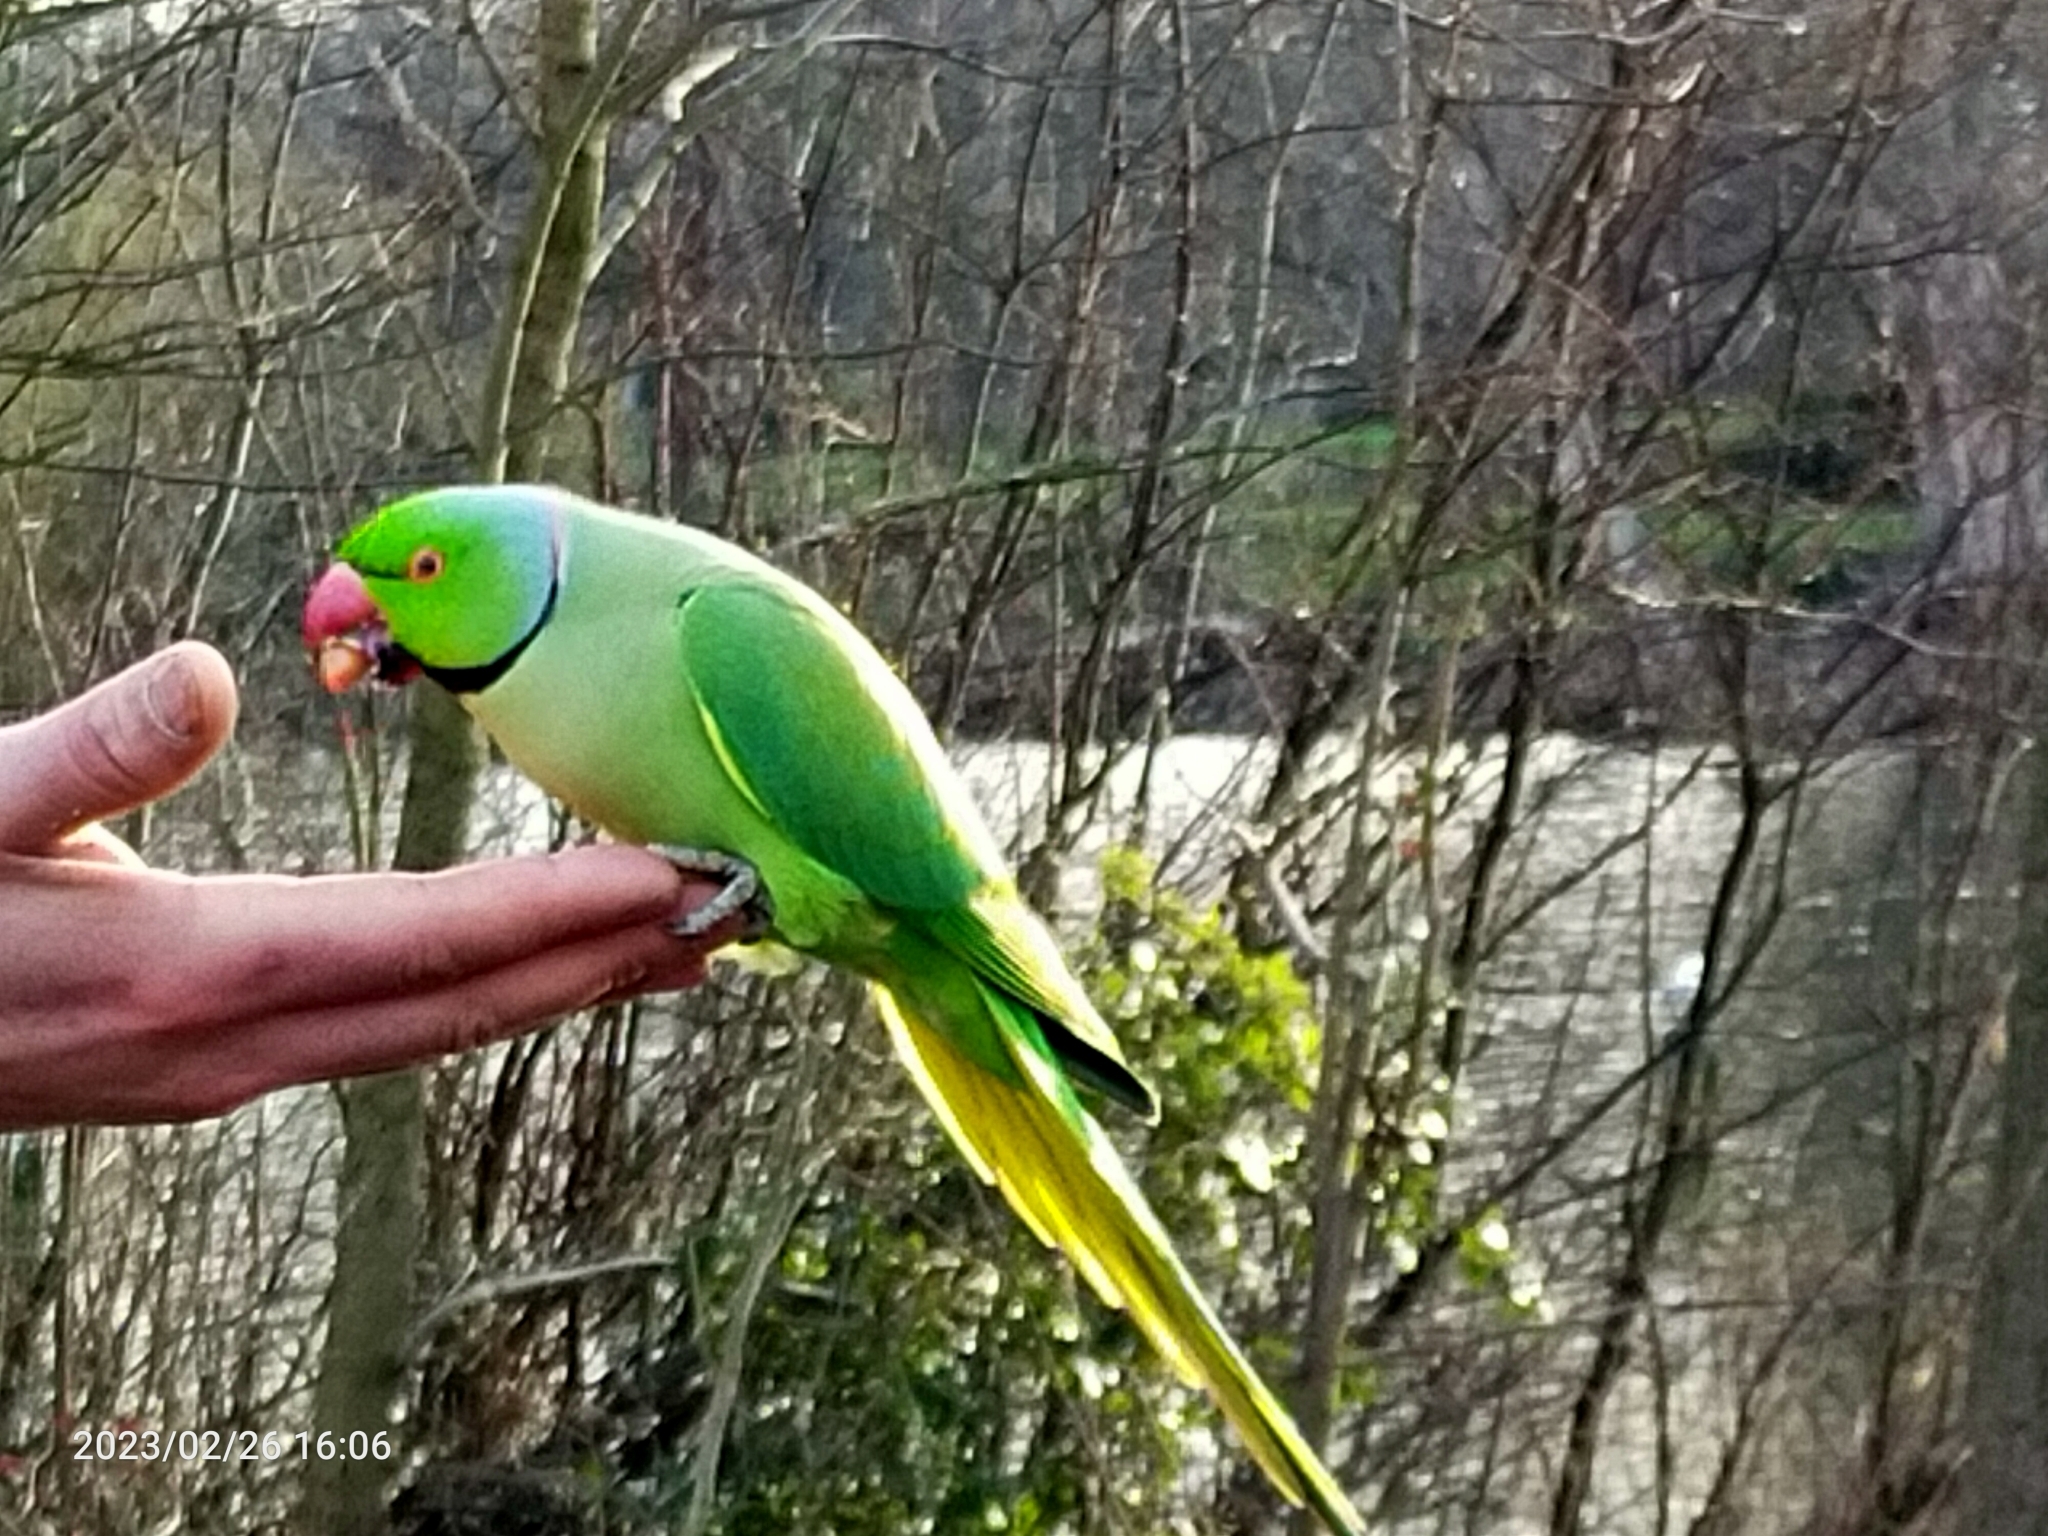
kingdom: Animalia
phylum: Chordata
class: Aves
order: Psittaciformes
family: Psittacidae
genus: Psittacula
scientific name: Psittacula krameri
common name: Rose-ringed parakeet
